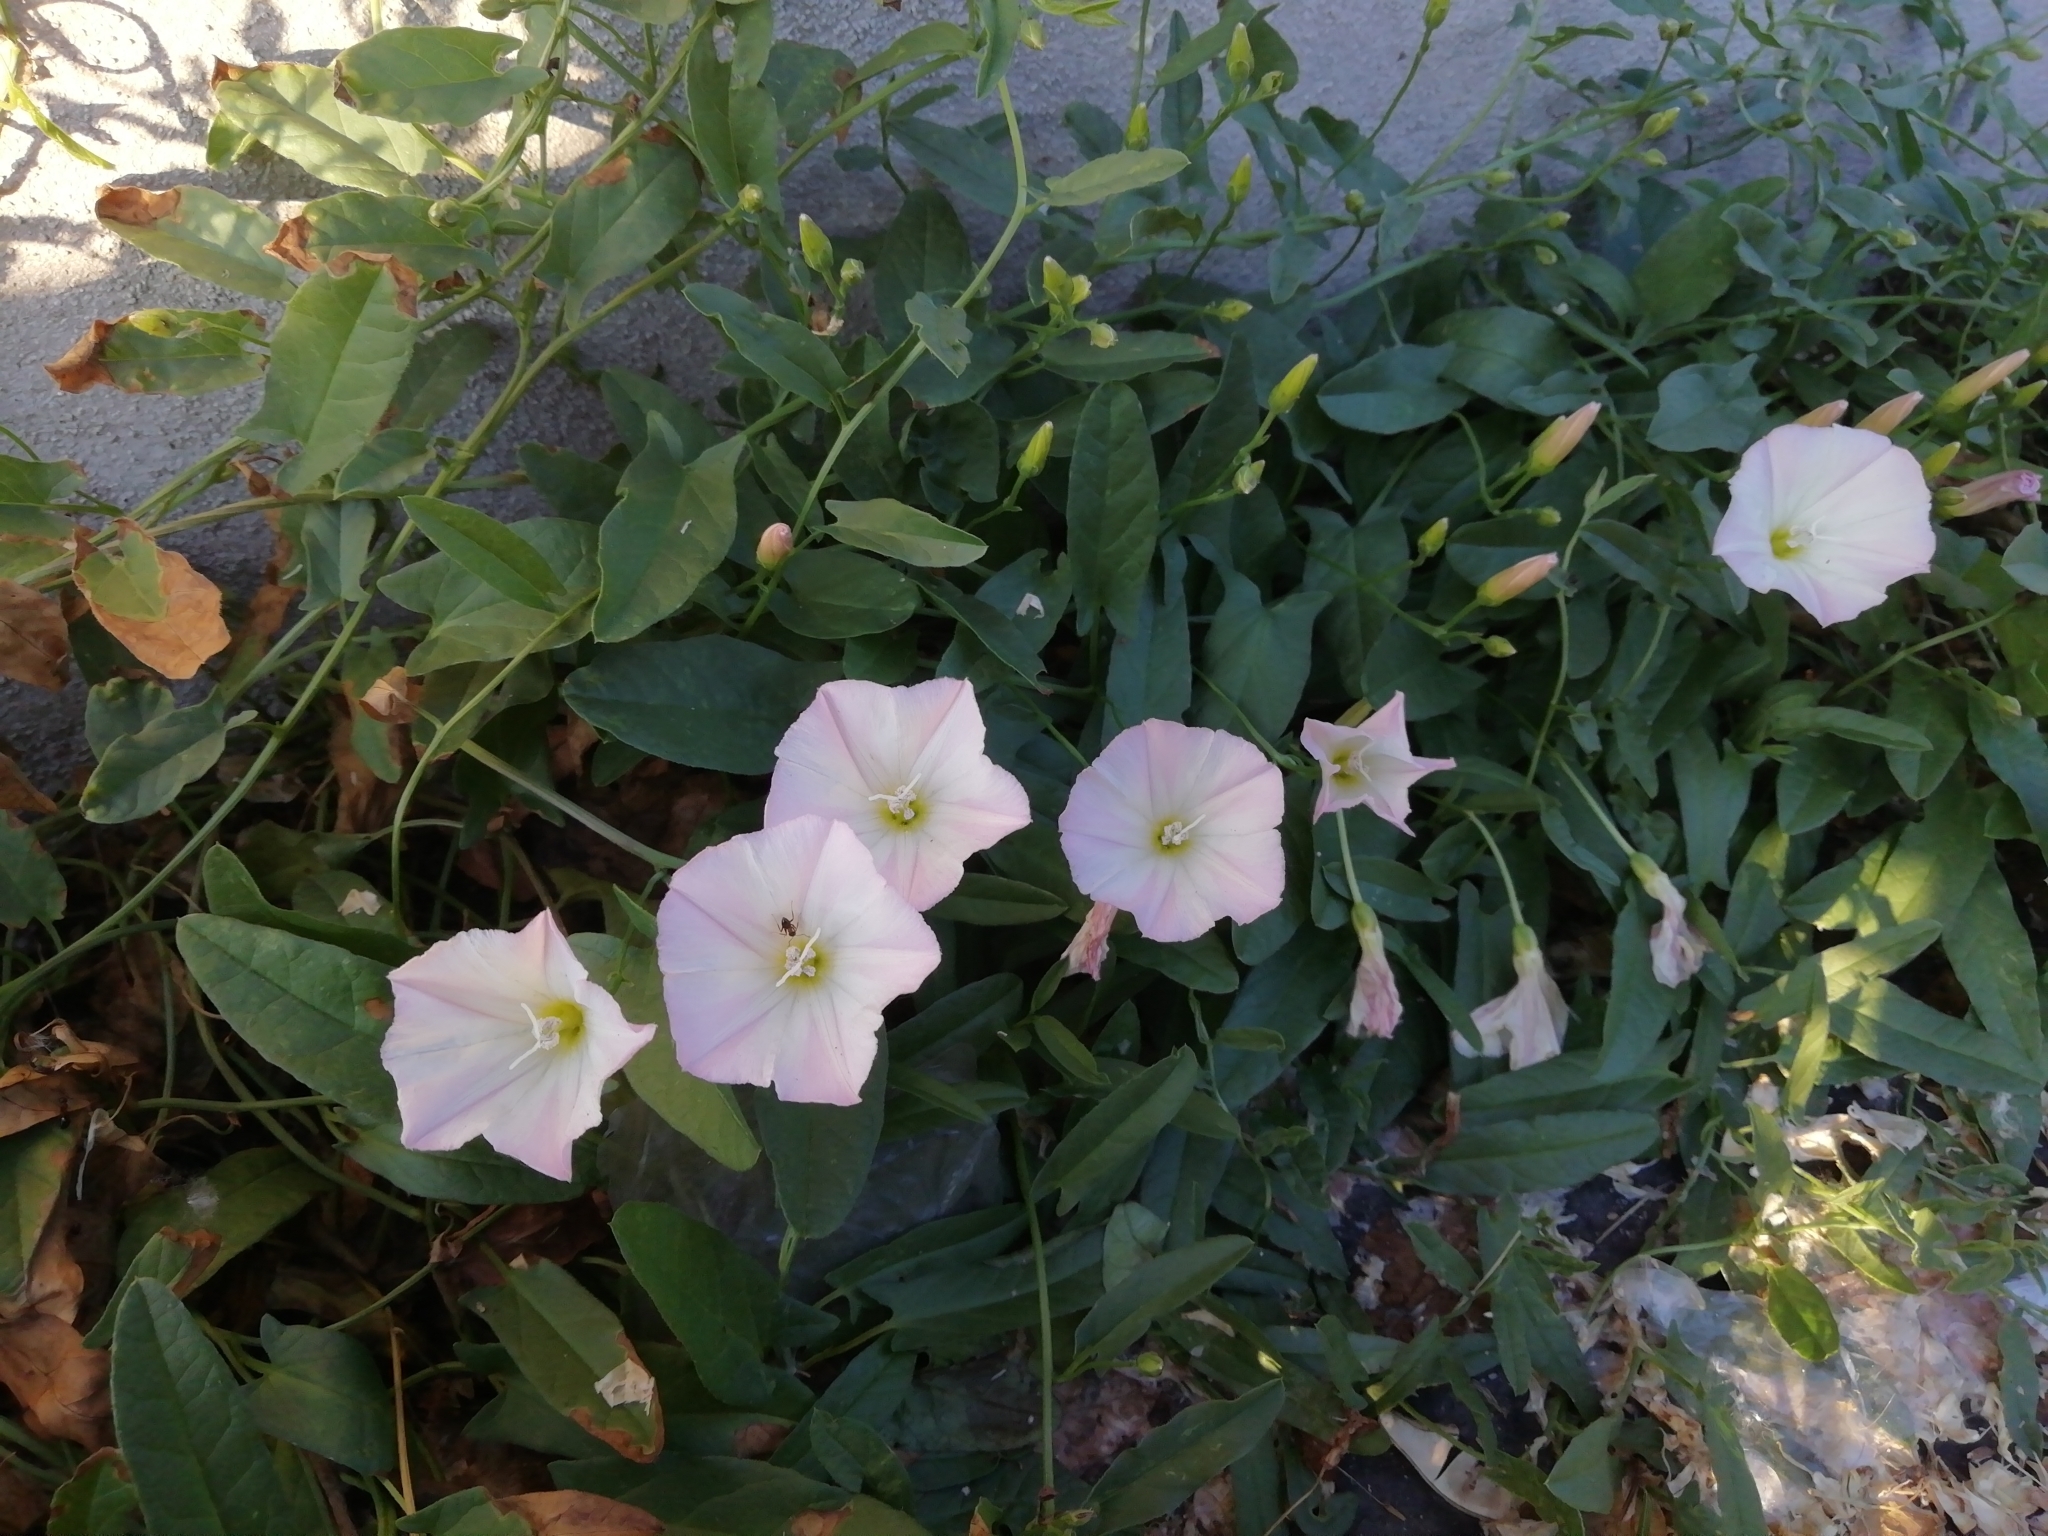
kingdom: Plantae
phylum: Tracheophyta
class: Magnoliopsida
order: Solanales
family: Convolvulaceae
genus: Convolvulus
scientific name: Convolvulus arvensis
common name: Field bindweed
